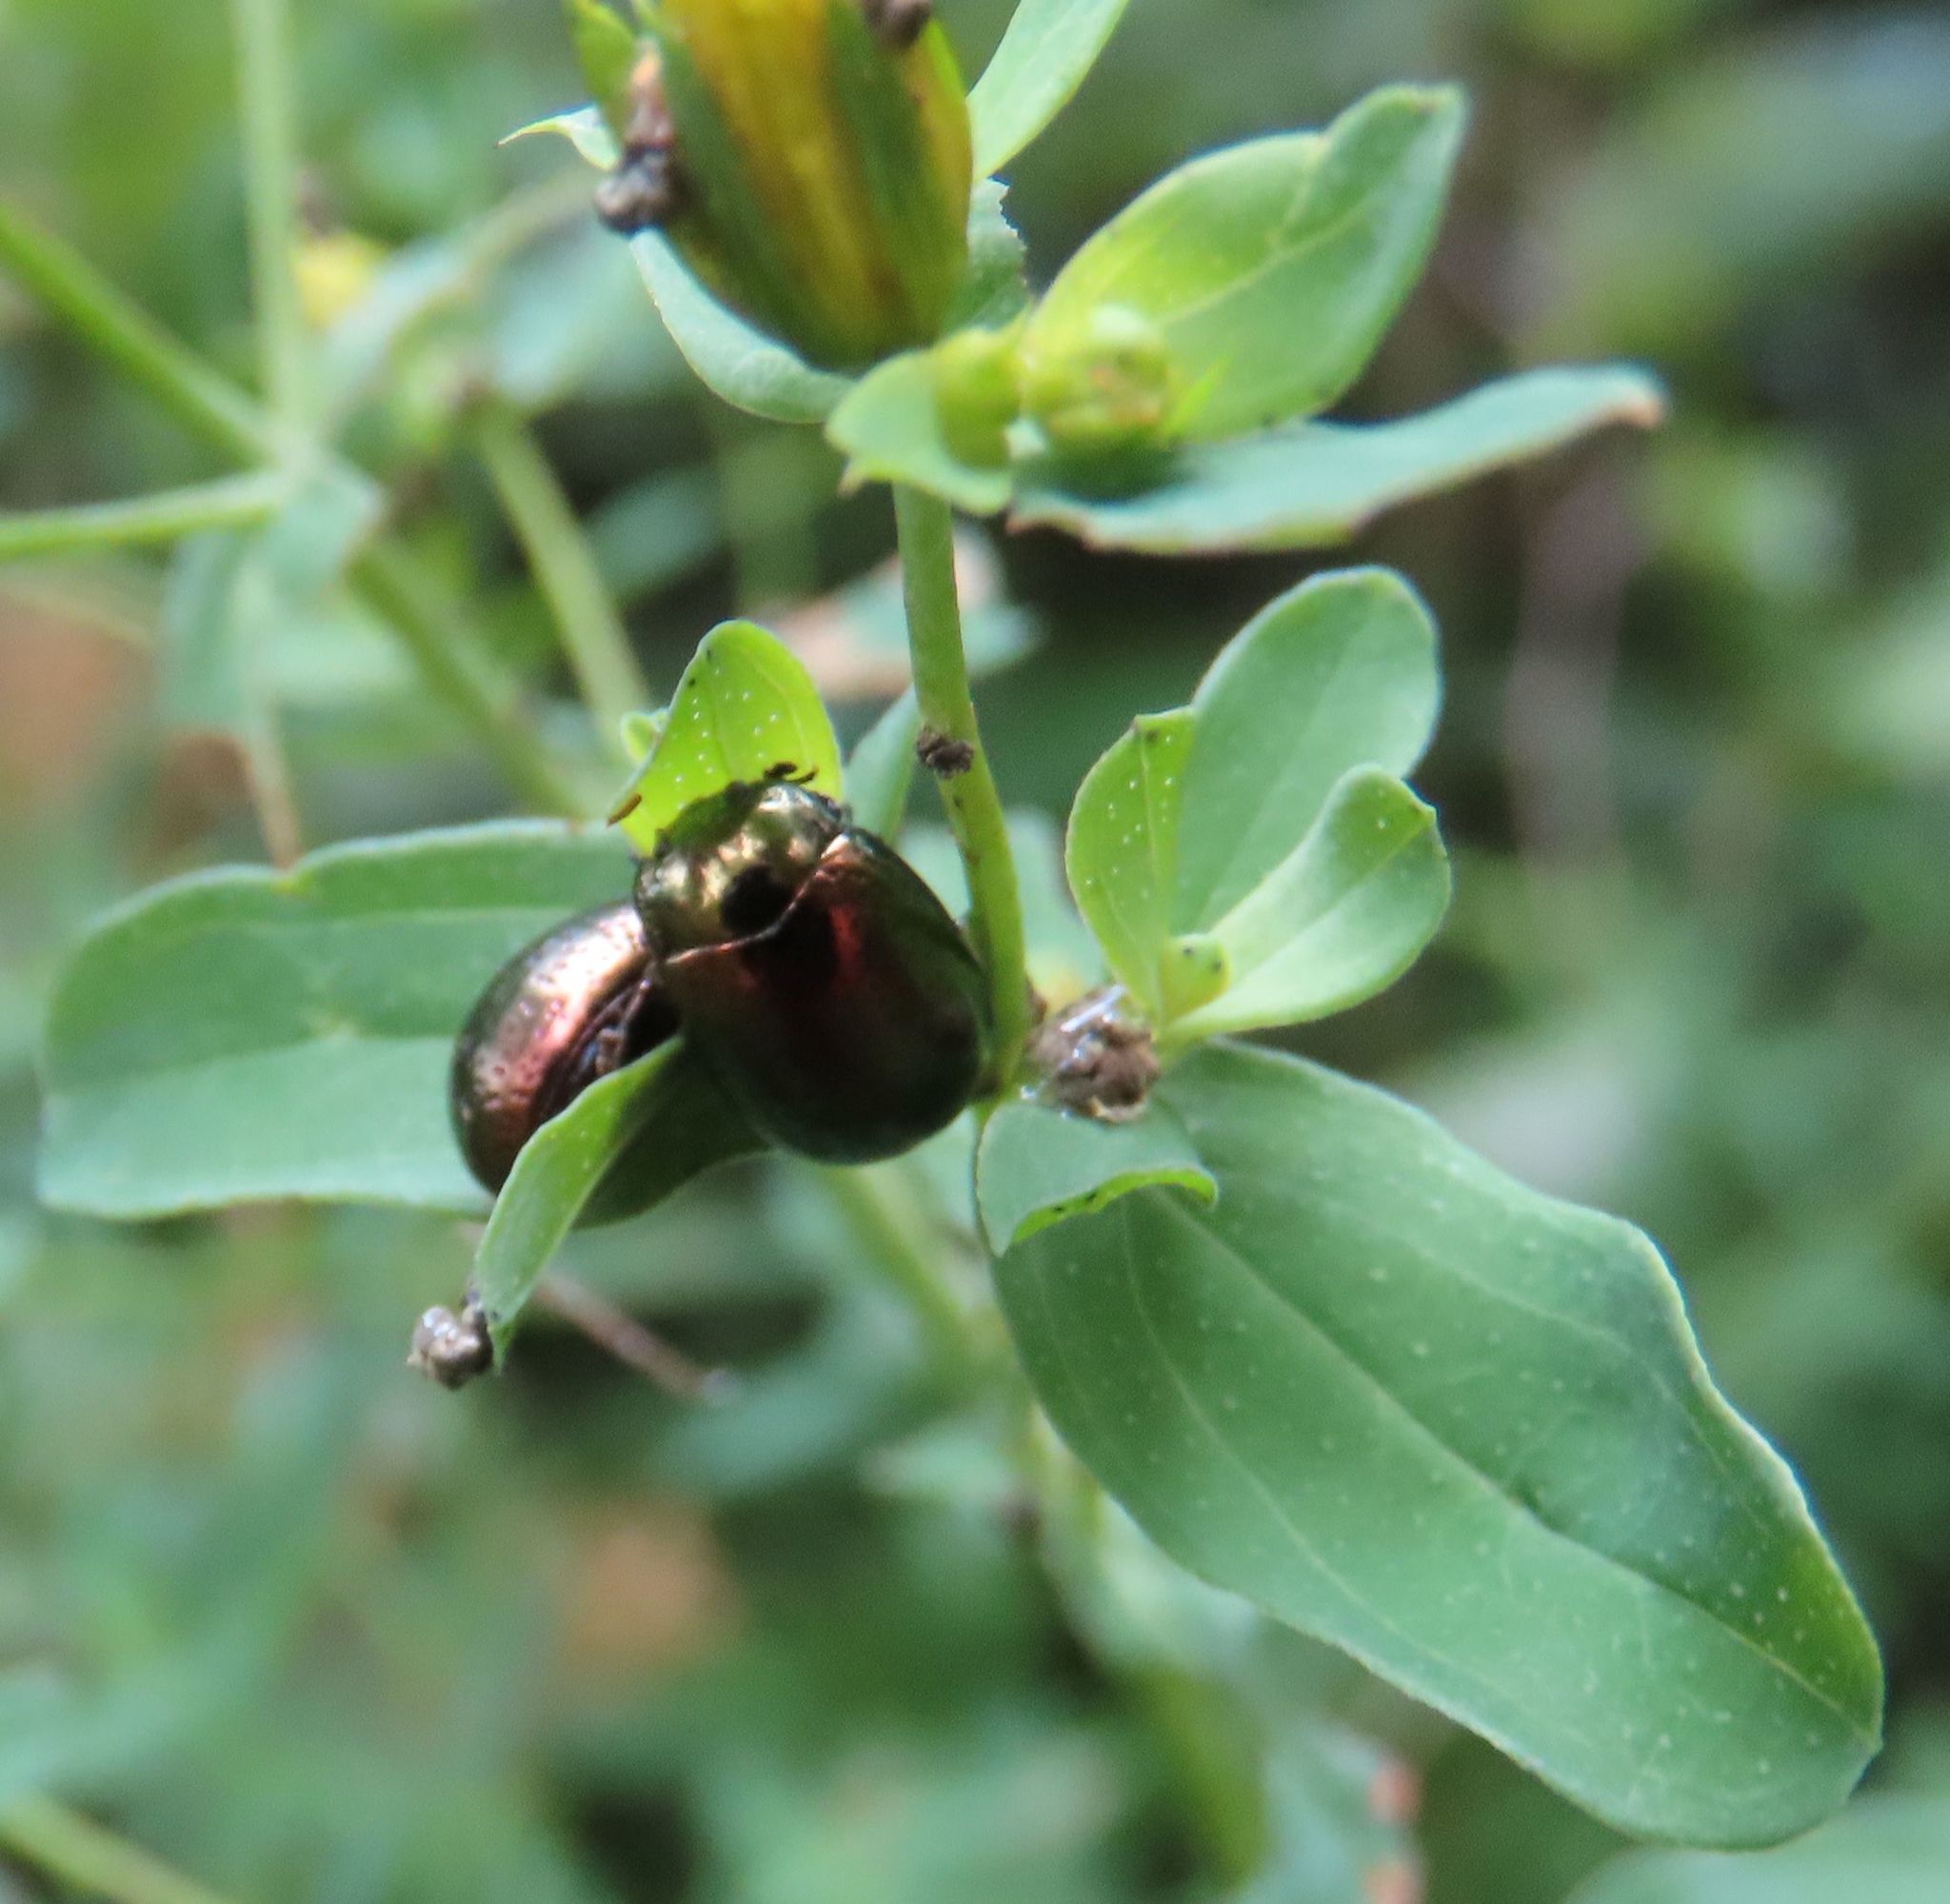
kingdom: Animalia
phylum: Arthropoda
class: Insecta
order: Coleoptera
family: Scarabaeidae
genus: Popillia
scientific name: Popillia japonica
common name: Japanese beetle
